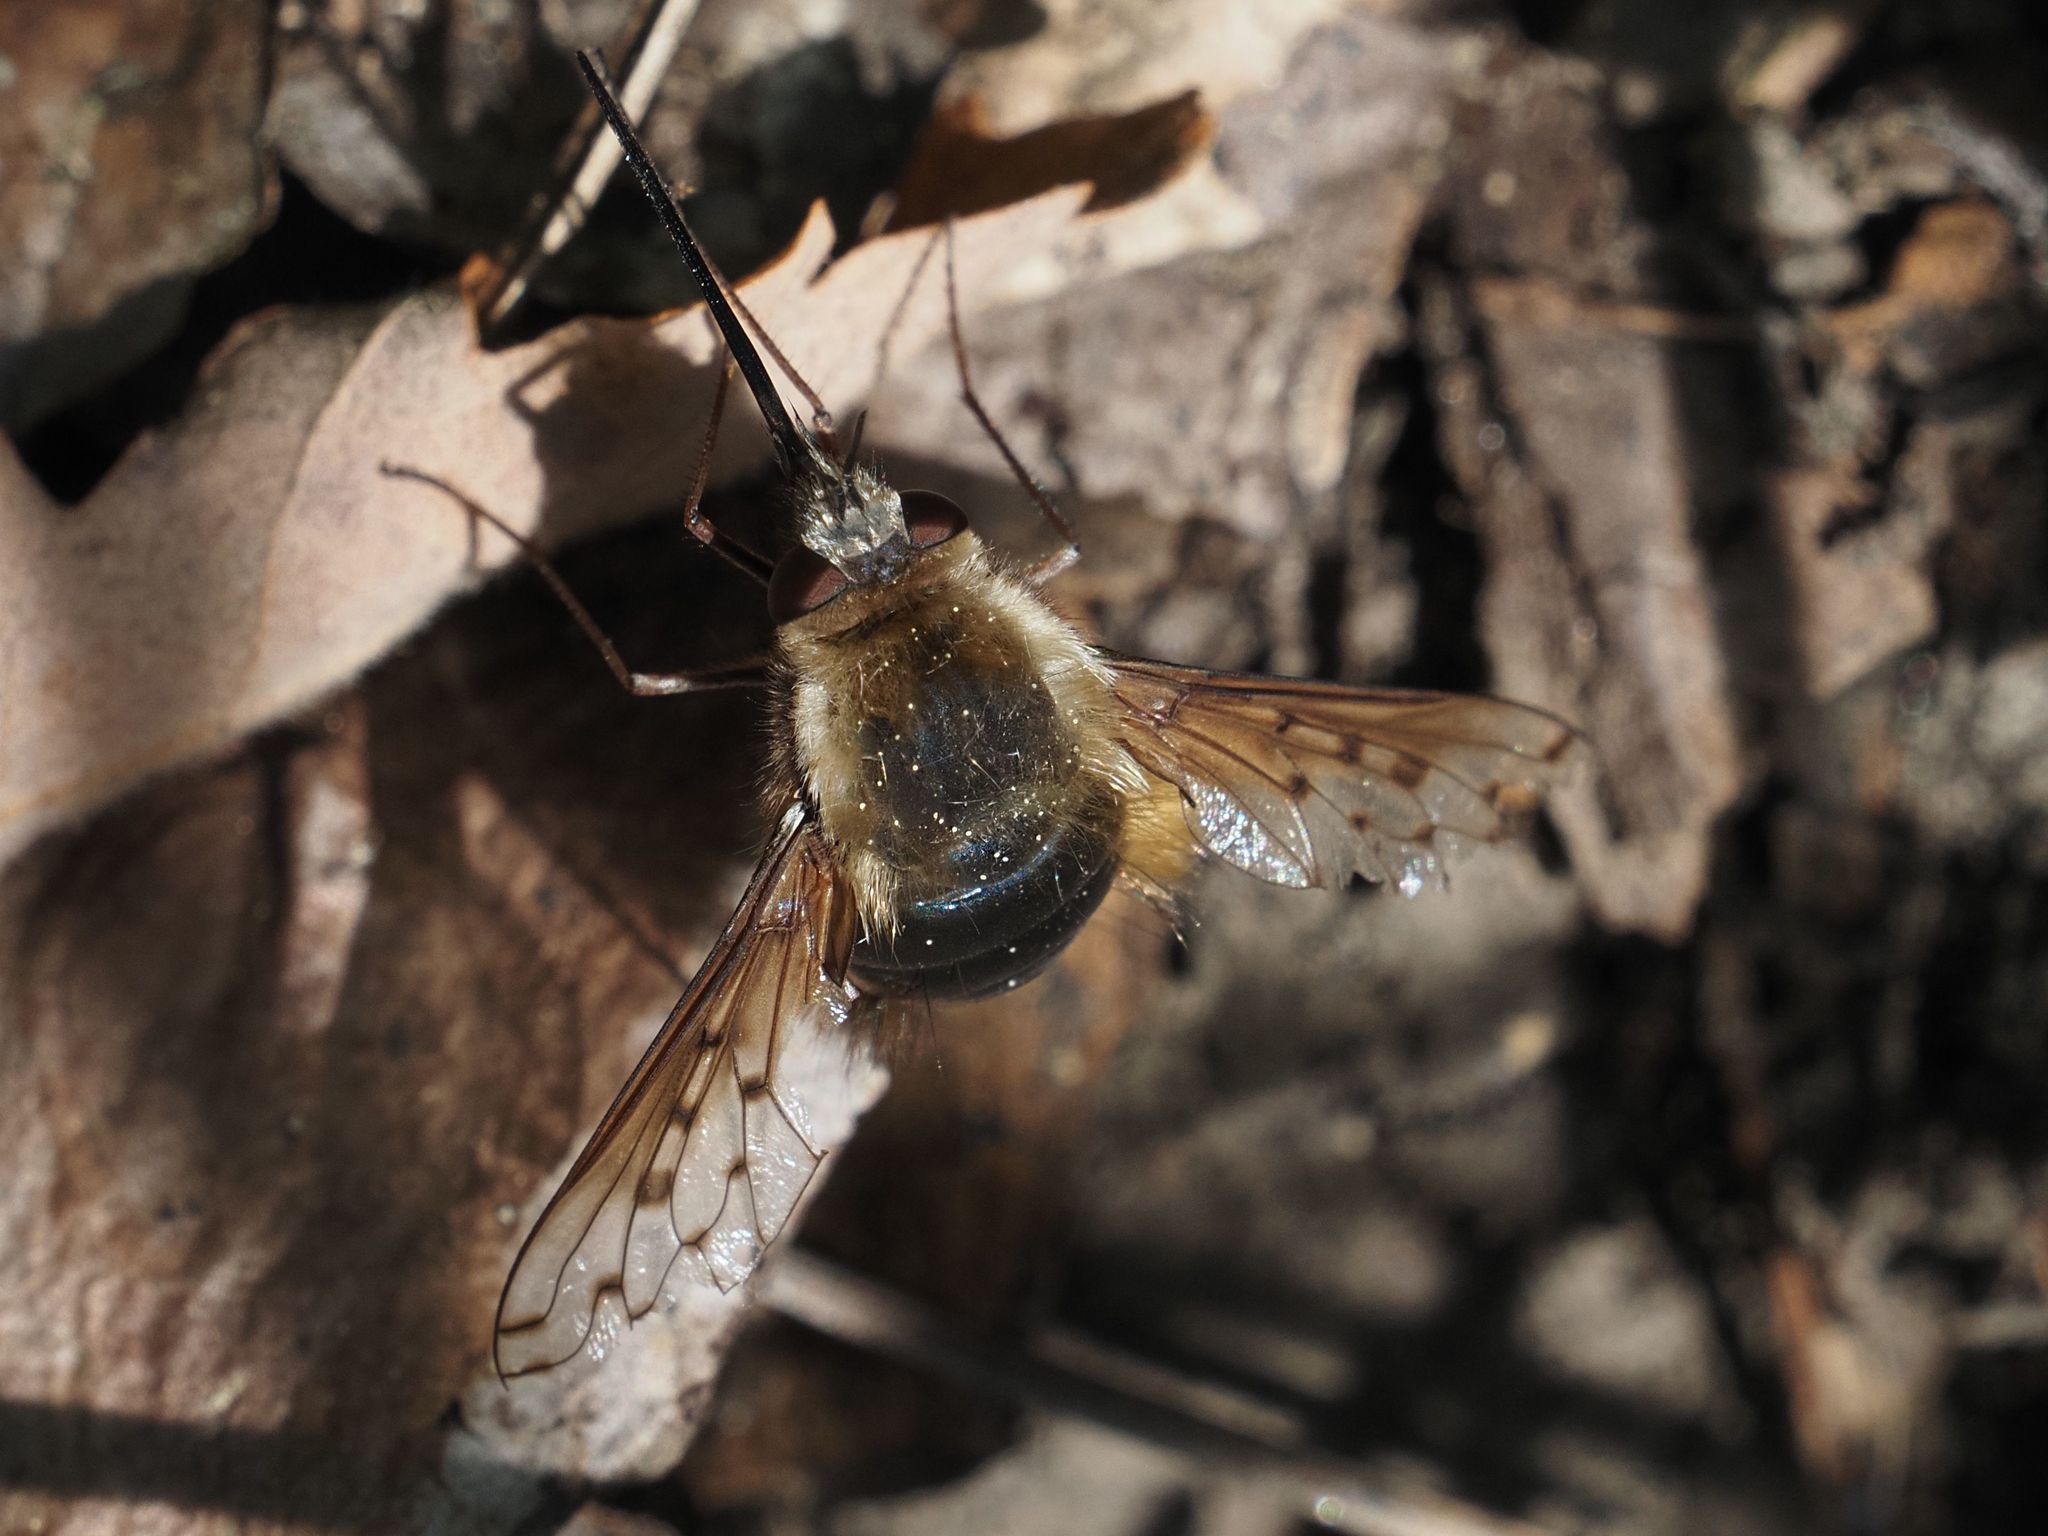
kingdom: Animalia
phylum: Arthropoda
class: Insecta
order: Diptera
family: Bombyliidae
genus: Bombylius
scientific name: Bombylius discolor
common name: Dotted bee-fly
